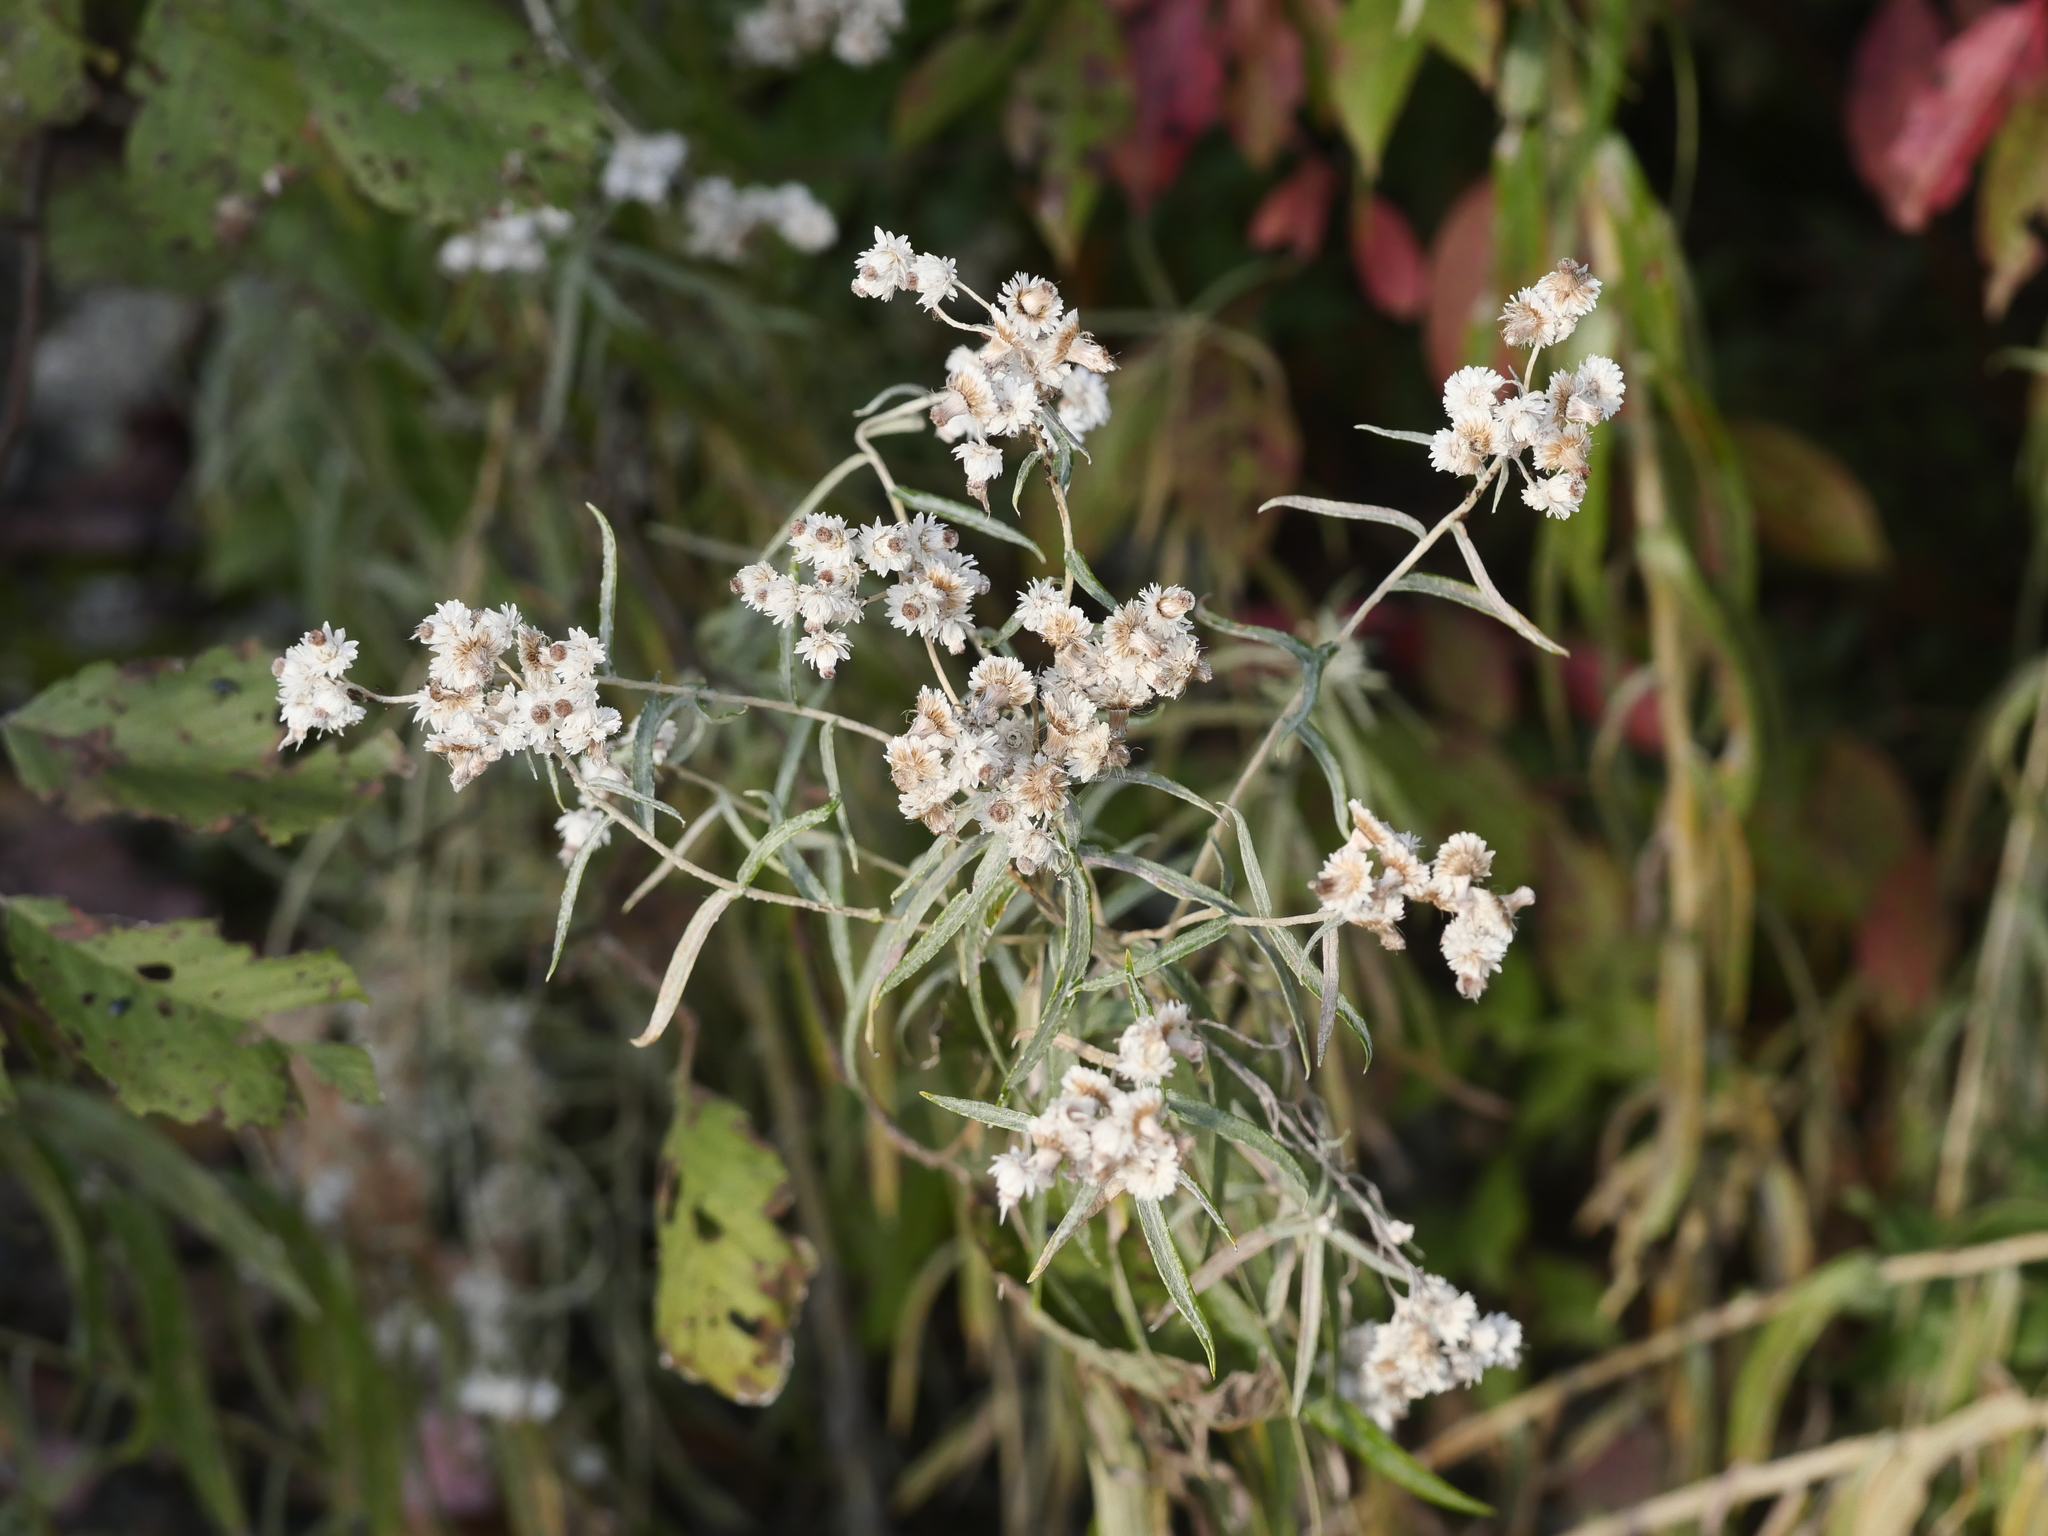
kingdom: Plantae
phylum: Tracheophyta
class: Magnoliopsida
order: Asterales
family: Asteraceae
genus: Anaphalis
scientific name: Anaphalis margaritacea
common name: Pearly everlasting
